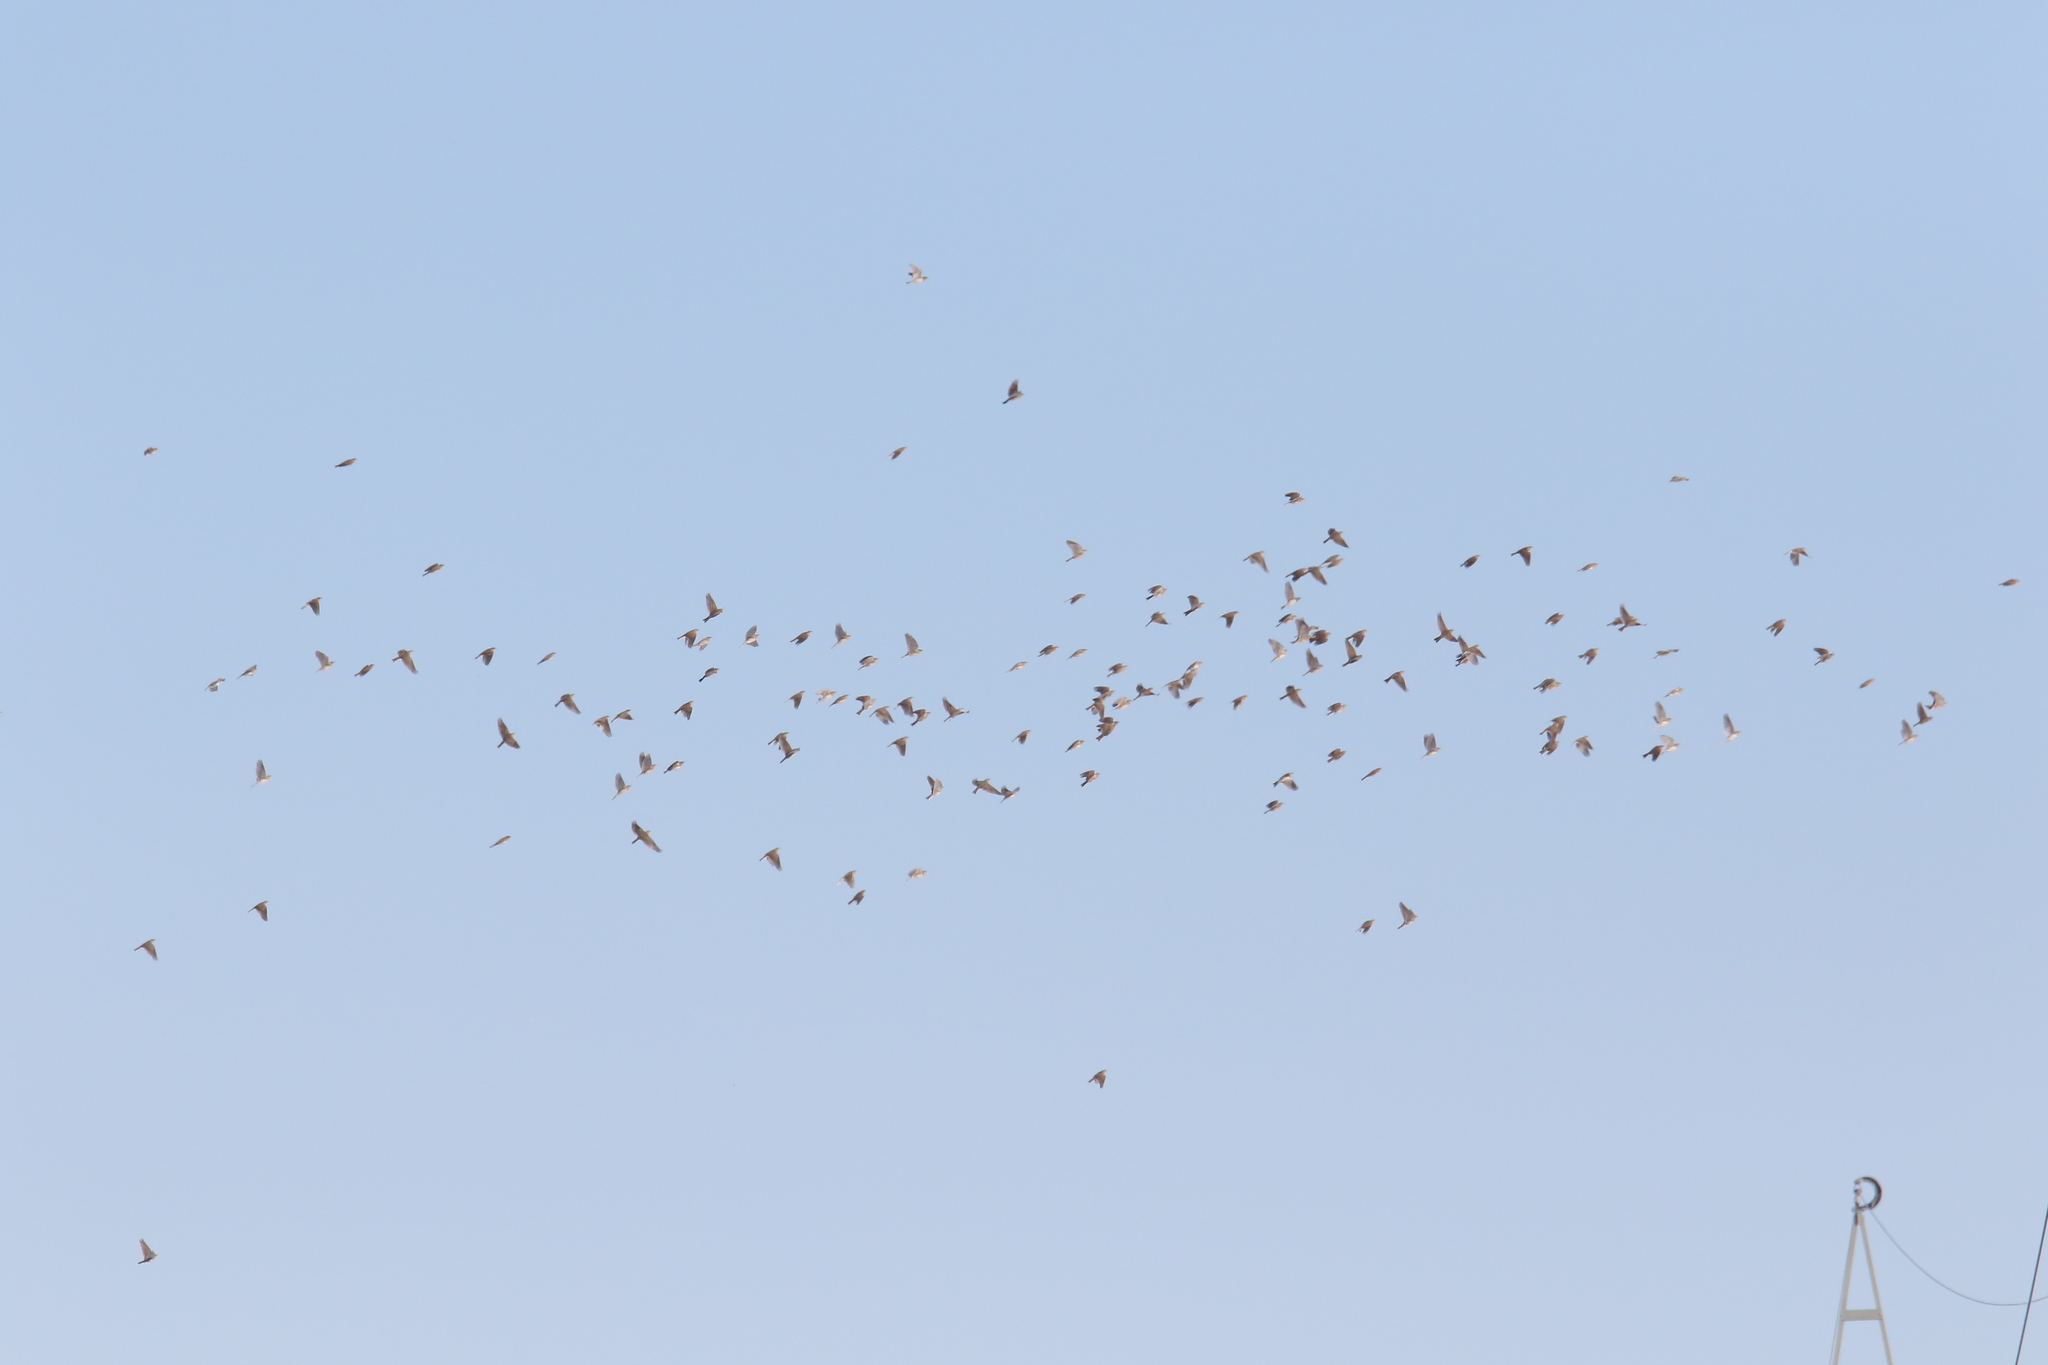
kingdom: Animalia
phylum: Chordata
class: Aves
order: Passeriformes
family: Alaudidae
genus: Alauda
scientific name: Alauda arvensis
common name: Eurasian skylark
